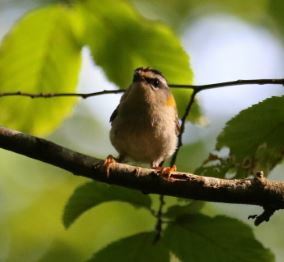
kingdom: Animalia
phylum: Chordata
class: Aves
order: Passeriformes
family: Regulidae
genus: Regulus
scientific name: Regulus ignicapilla
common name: Firecrest
